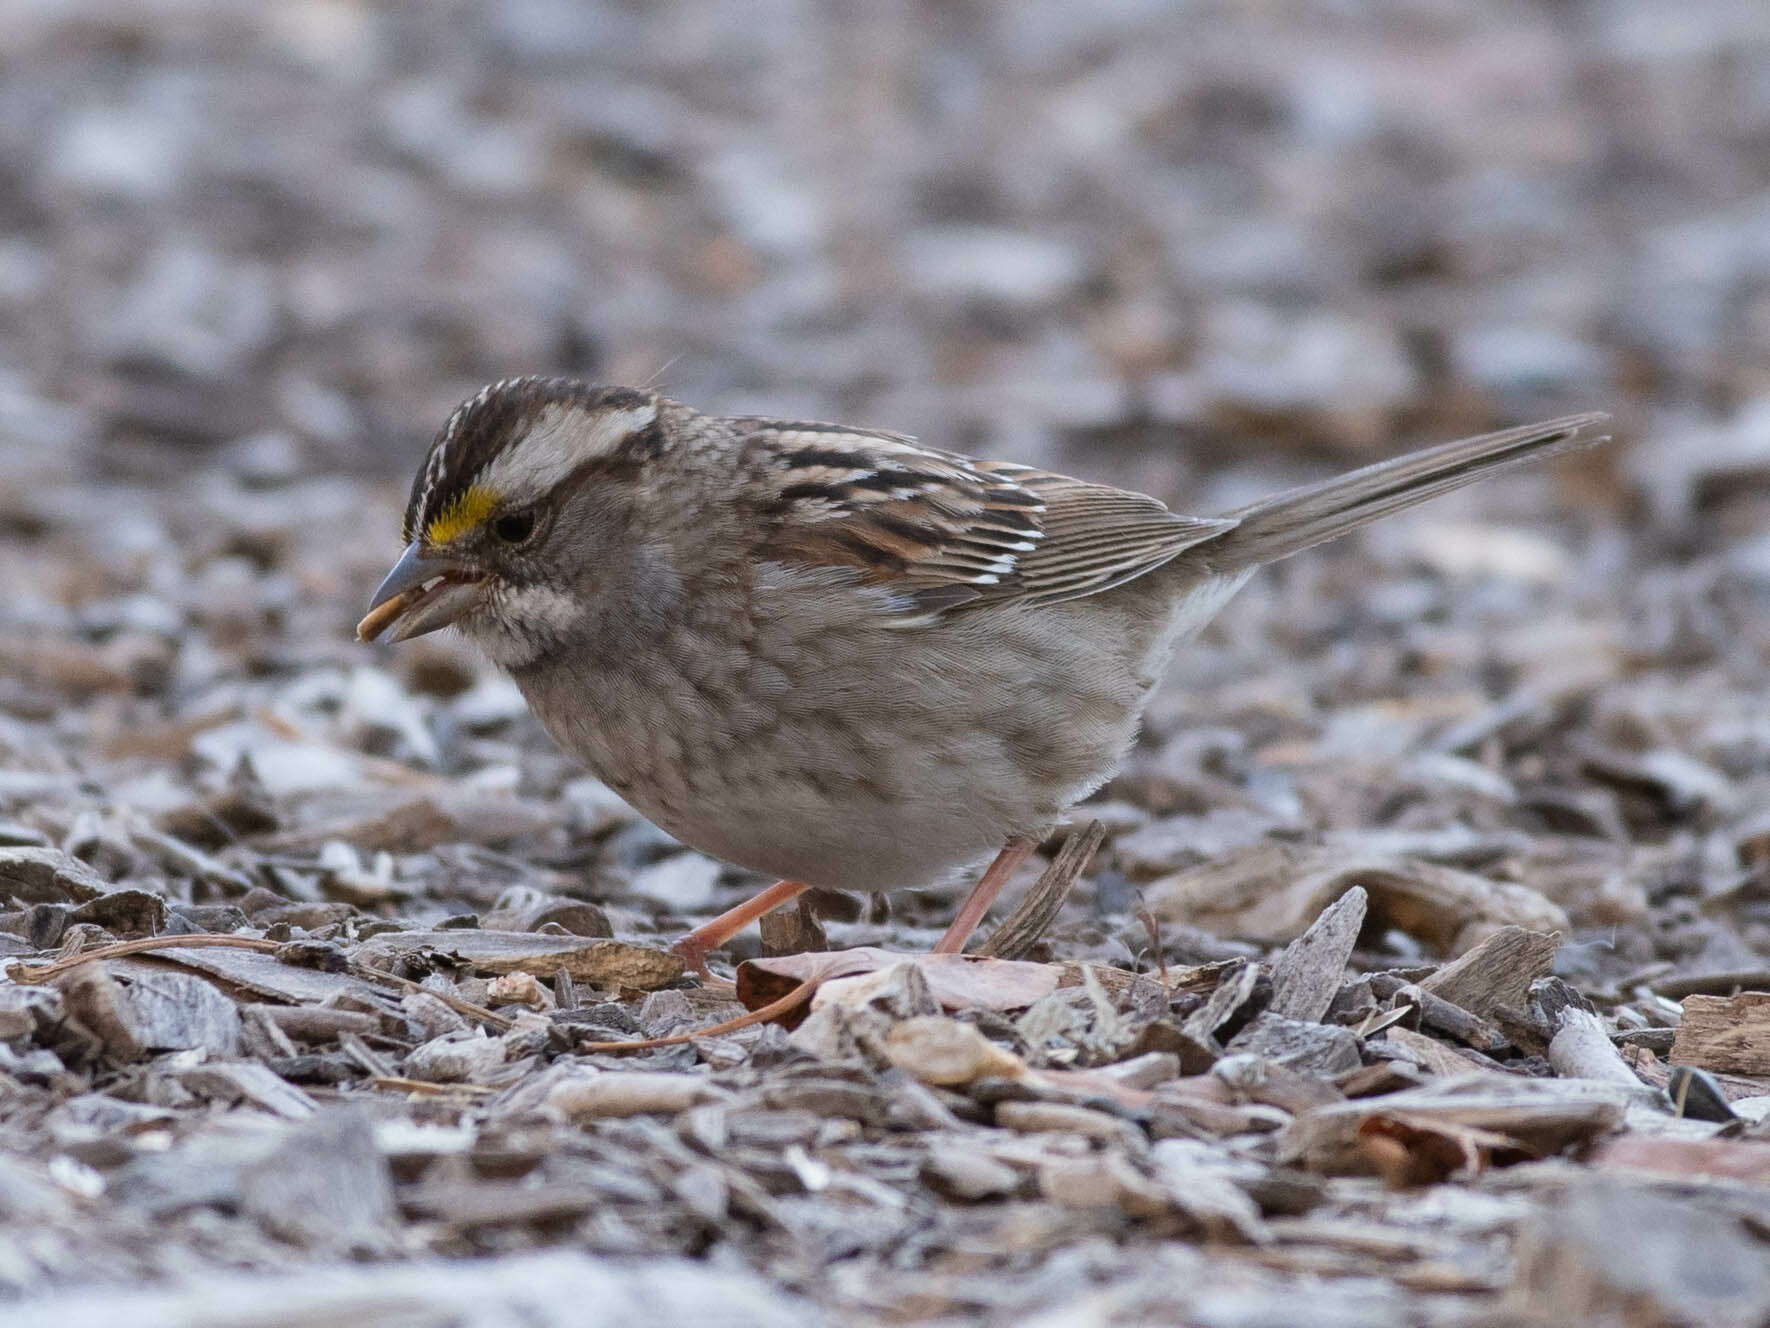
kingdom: Animalia
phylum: Chordata
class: Aves
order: Passeriformes
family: Passerellidae
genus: Zonotrichia
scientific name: Zonotrichia albicollis
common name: White-throated sparrow
